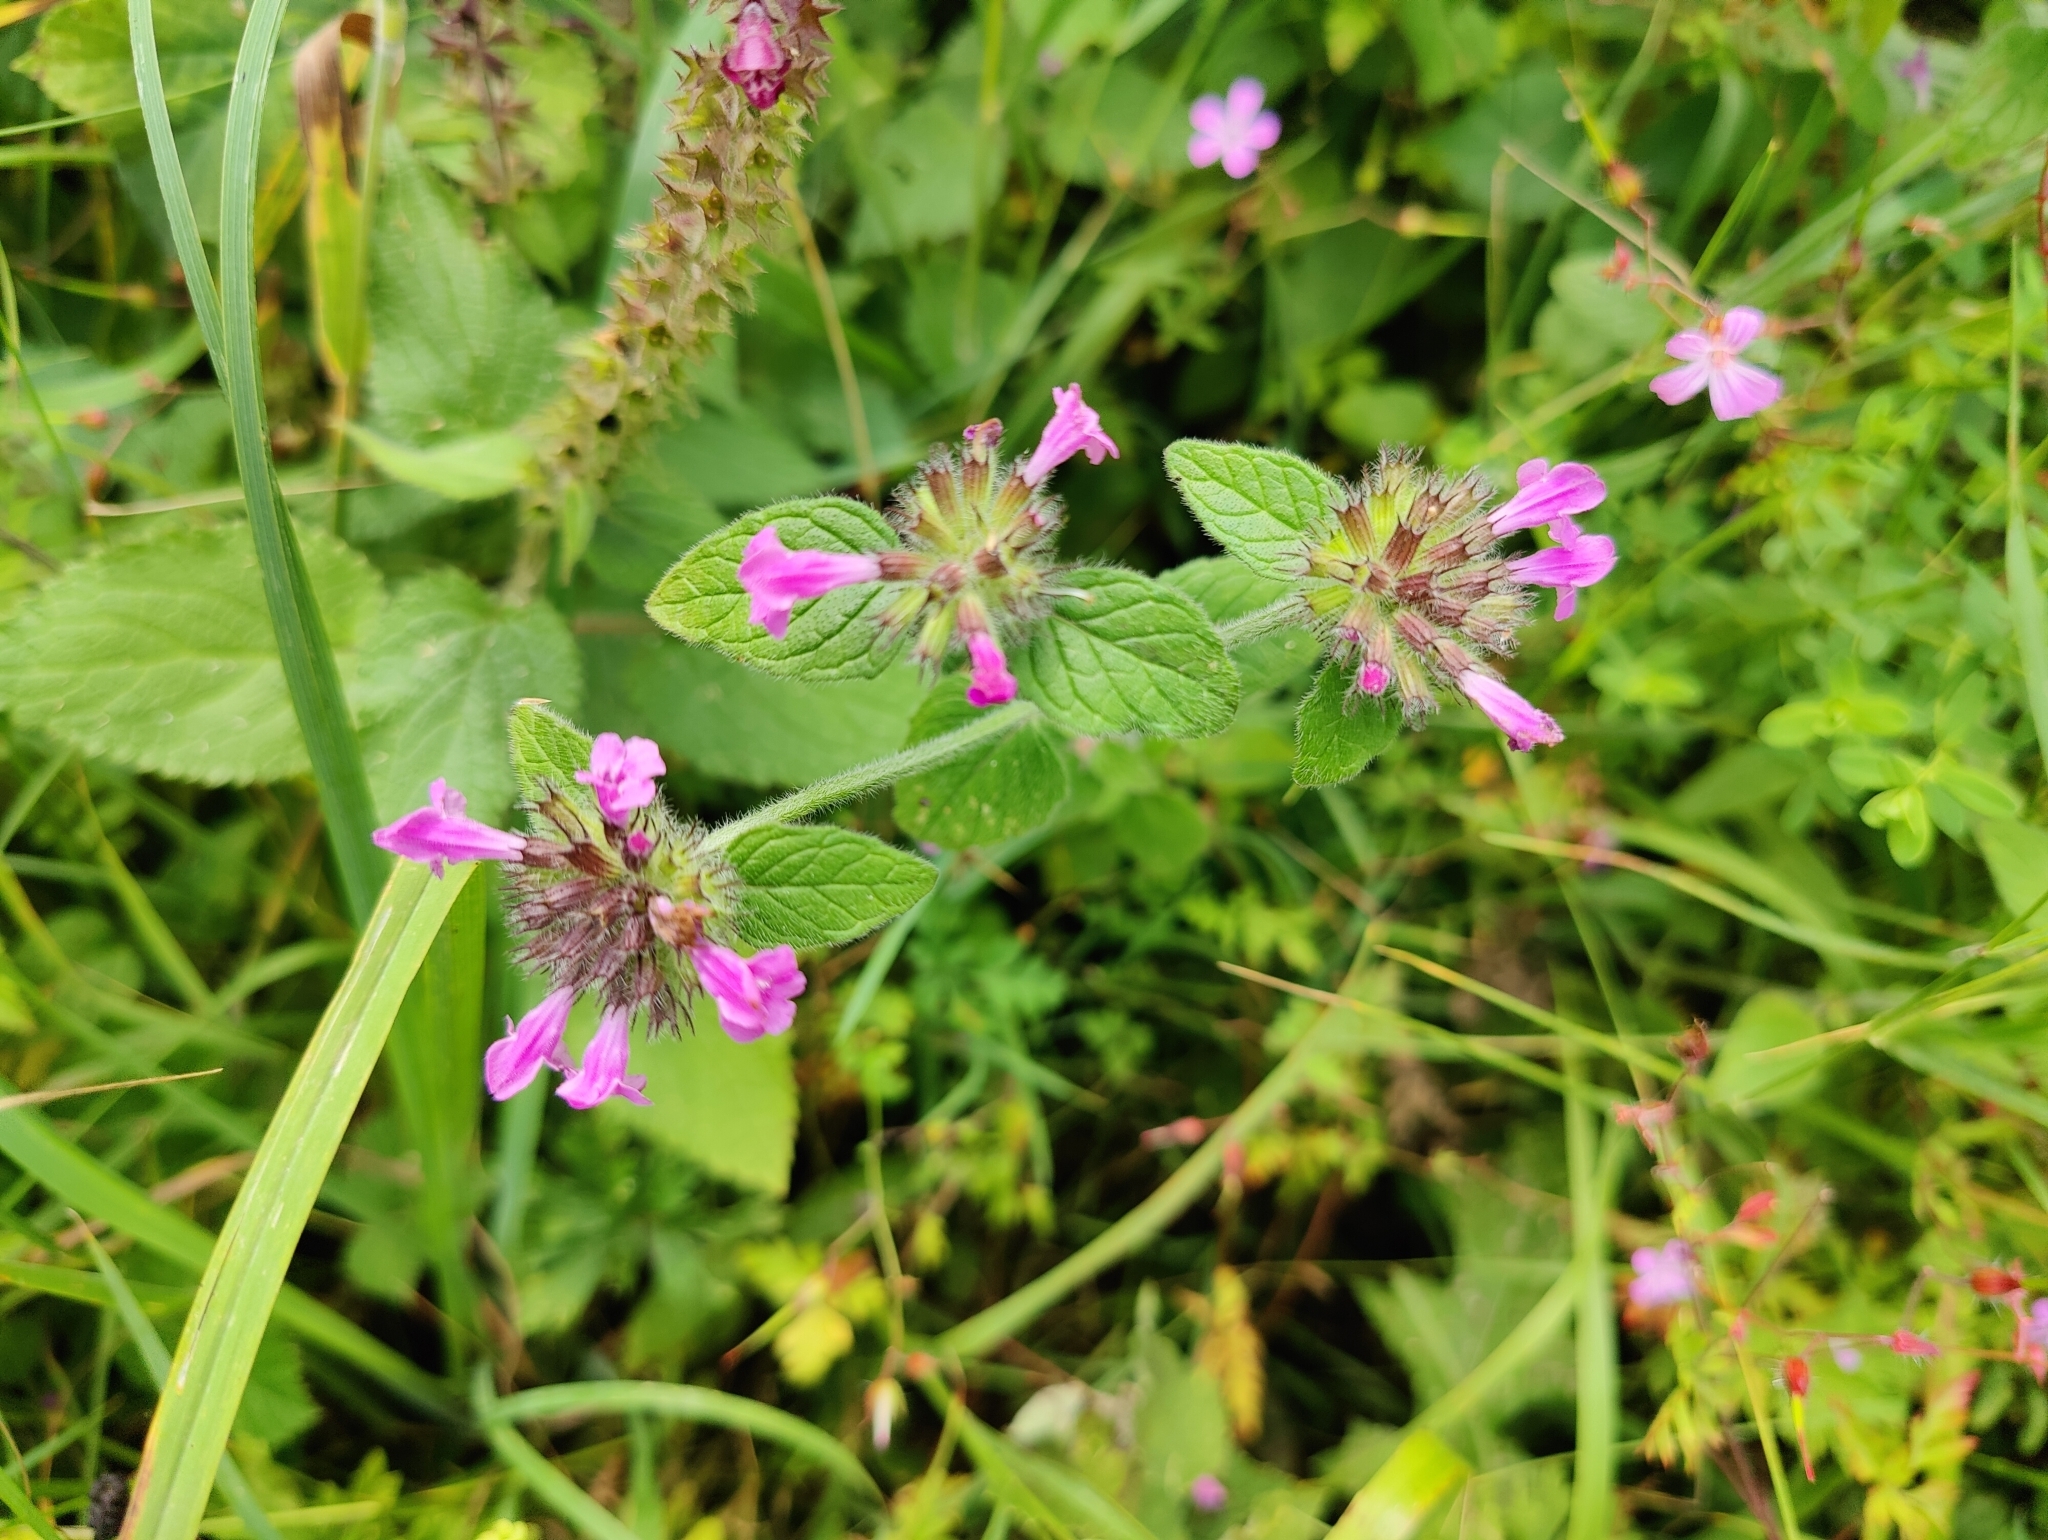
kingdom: Plantae
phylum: Tracheophyta
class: Magnoliopsida
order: Lamiales
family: Lamiaceae
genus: Clinopodium
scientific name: Clinopodium vulgare
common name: Wild basil
